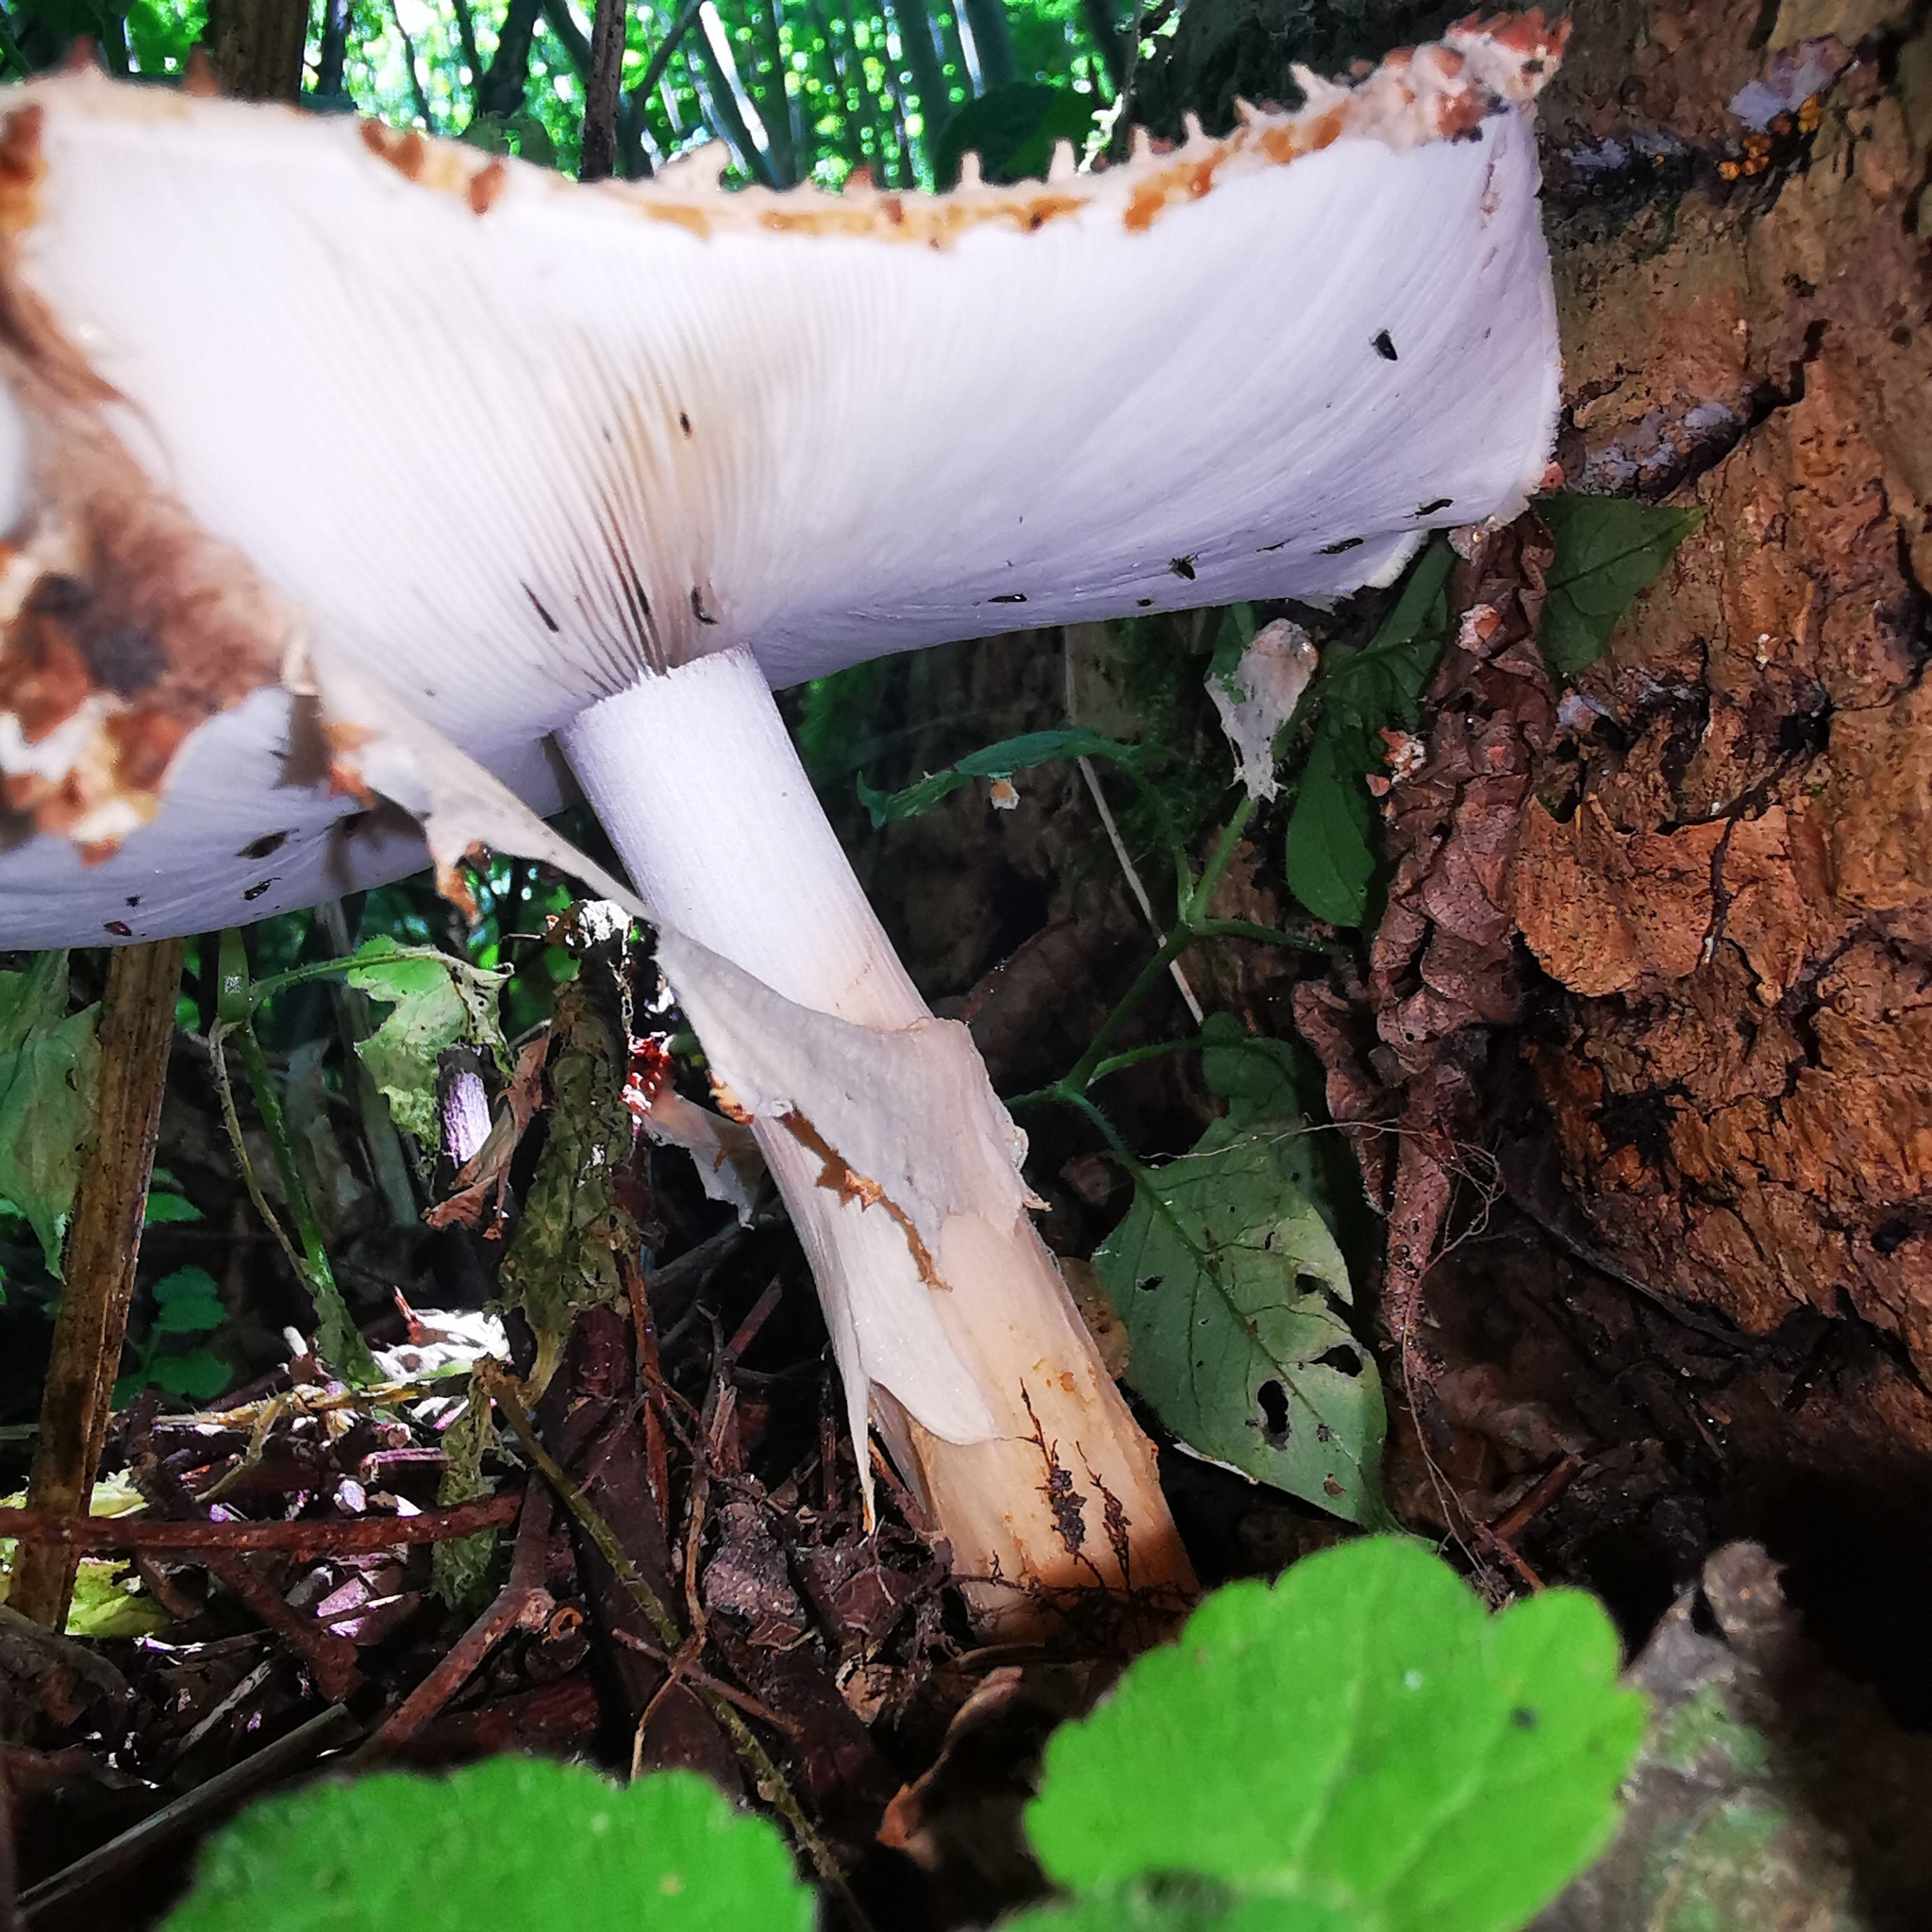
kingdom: Fungi
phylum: Basidiomycota
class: Agaricomycetes
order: Agaricales
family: Agaricaceae
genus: Echinoderma
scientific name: Echinoderma asperum
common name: Freckled dapperling
